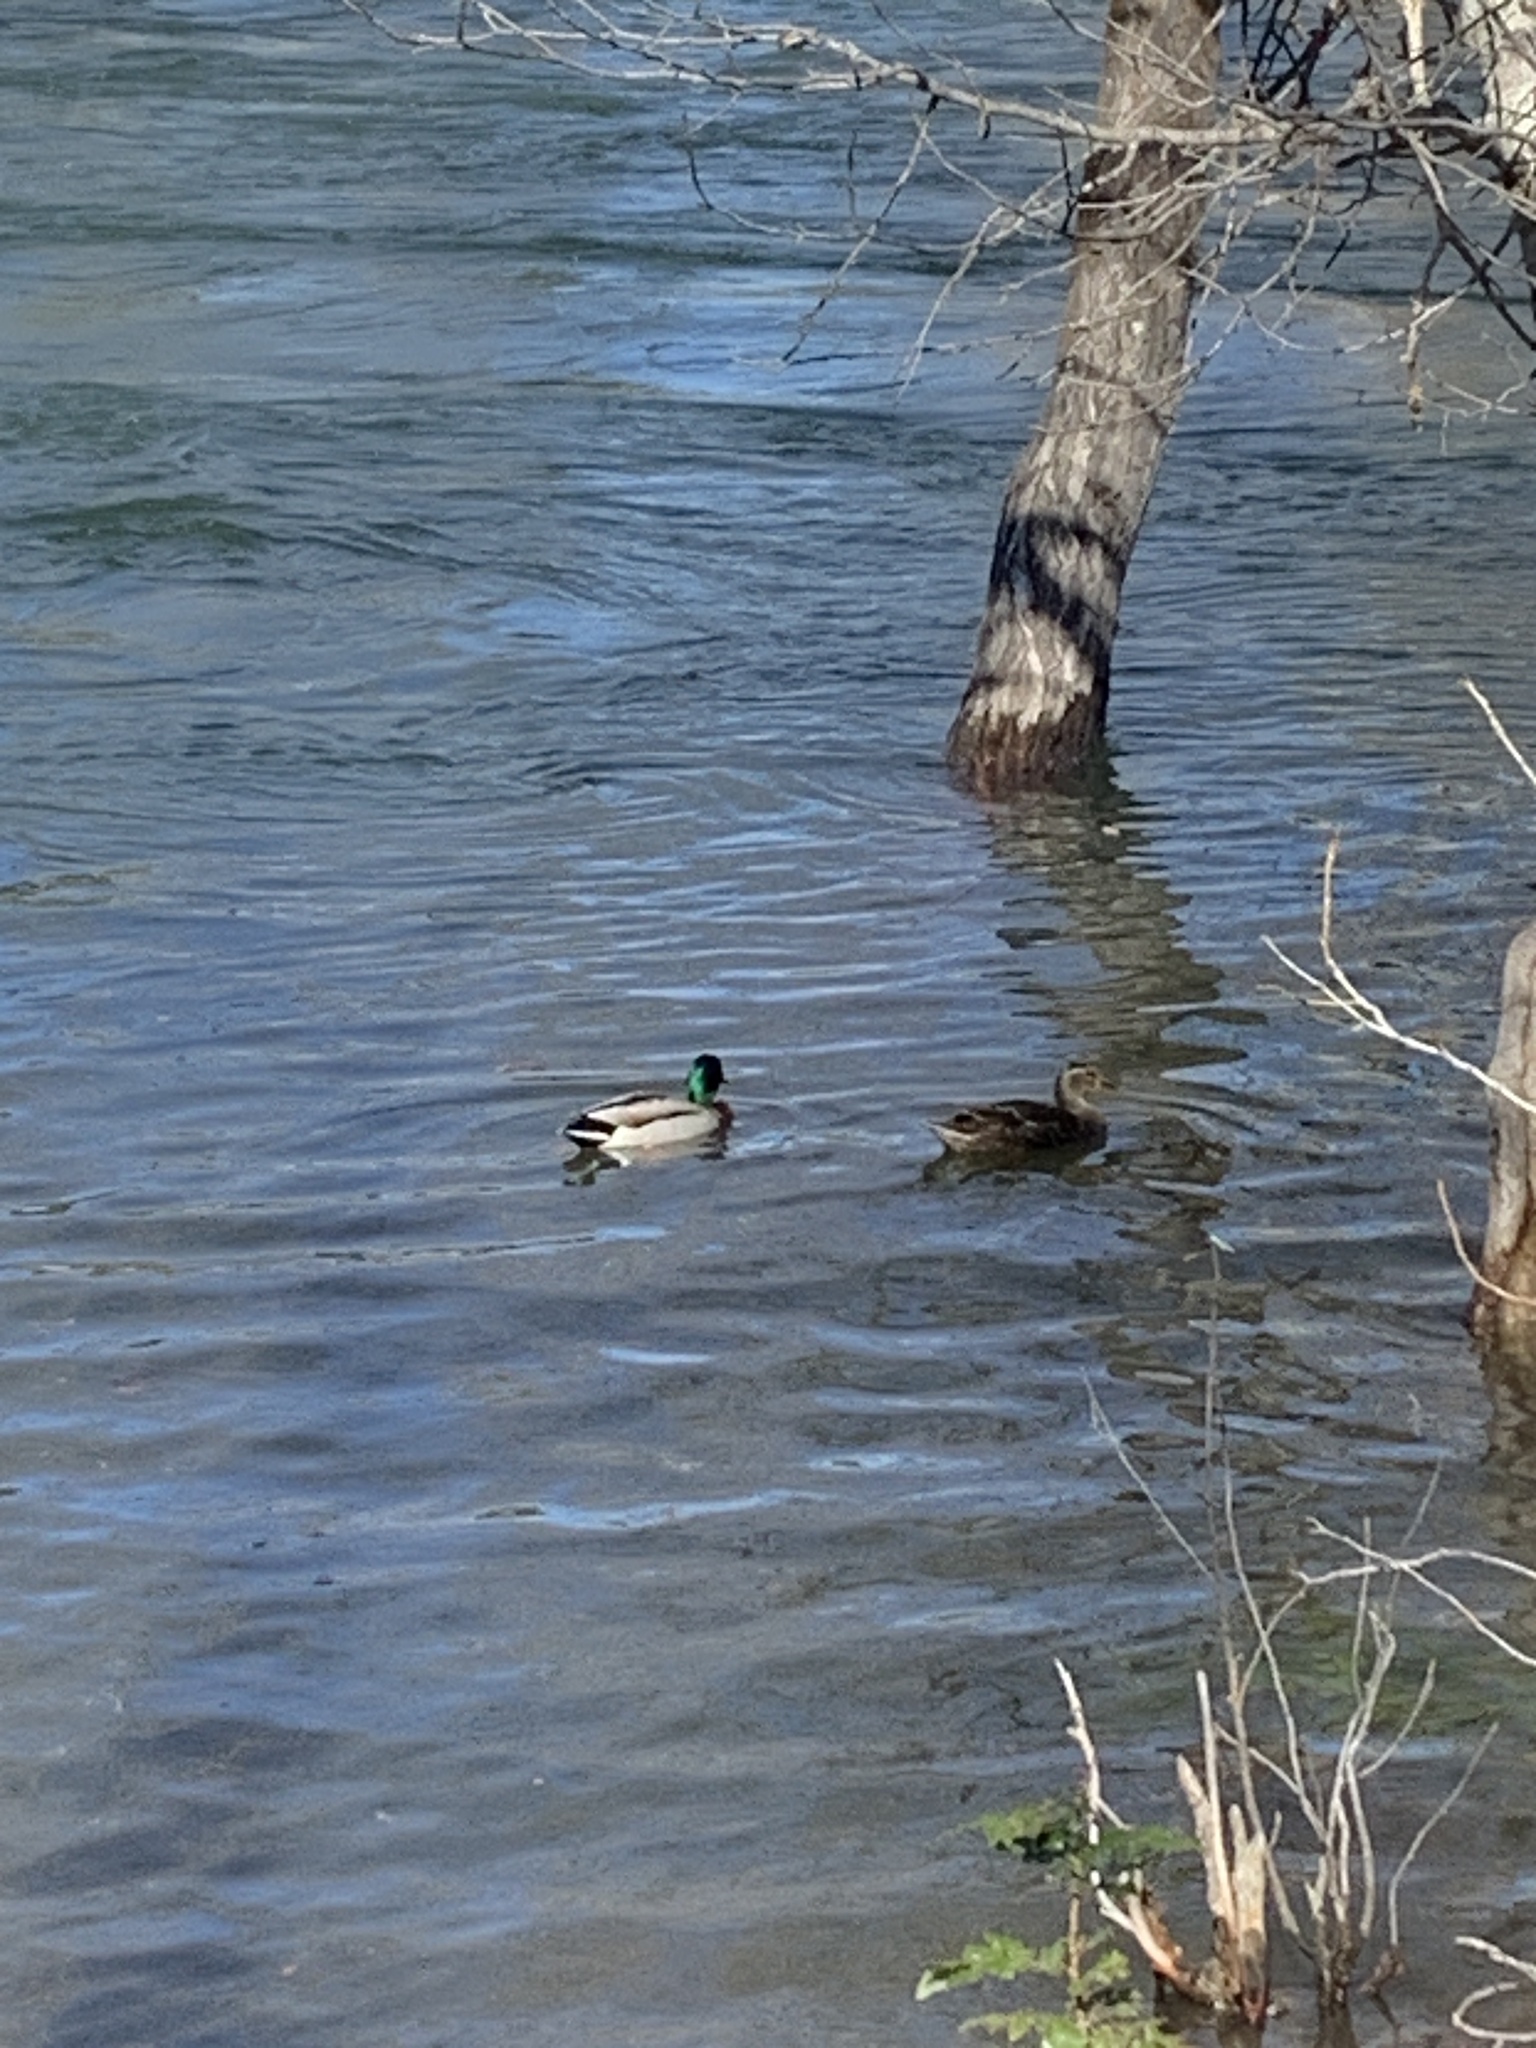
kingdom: Animalia
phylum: Chordata
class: Aves
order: Anseriformes
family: Anatidae
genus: Anas
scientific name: Anas platyrhynchos
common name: Mallard
